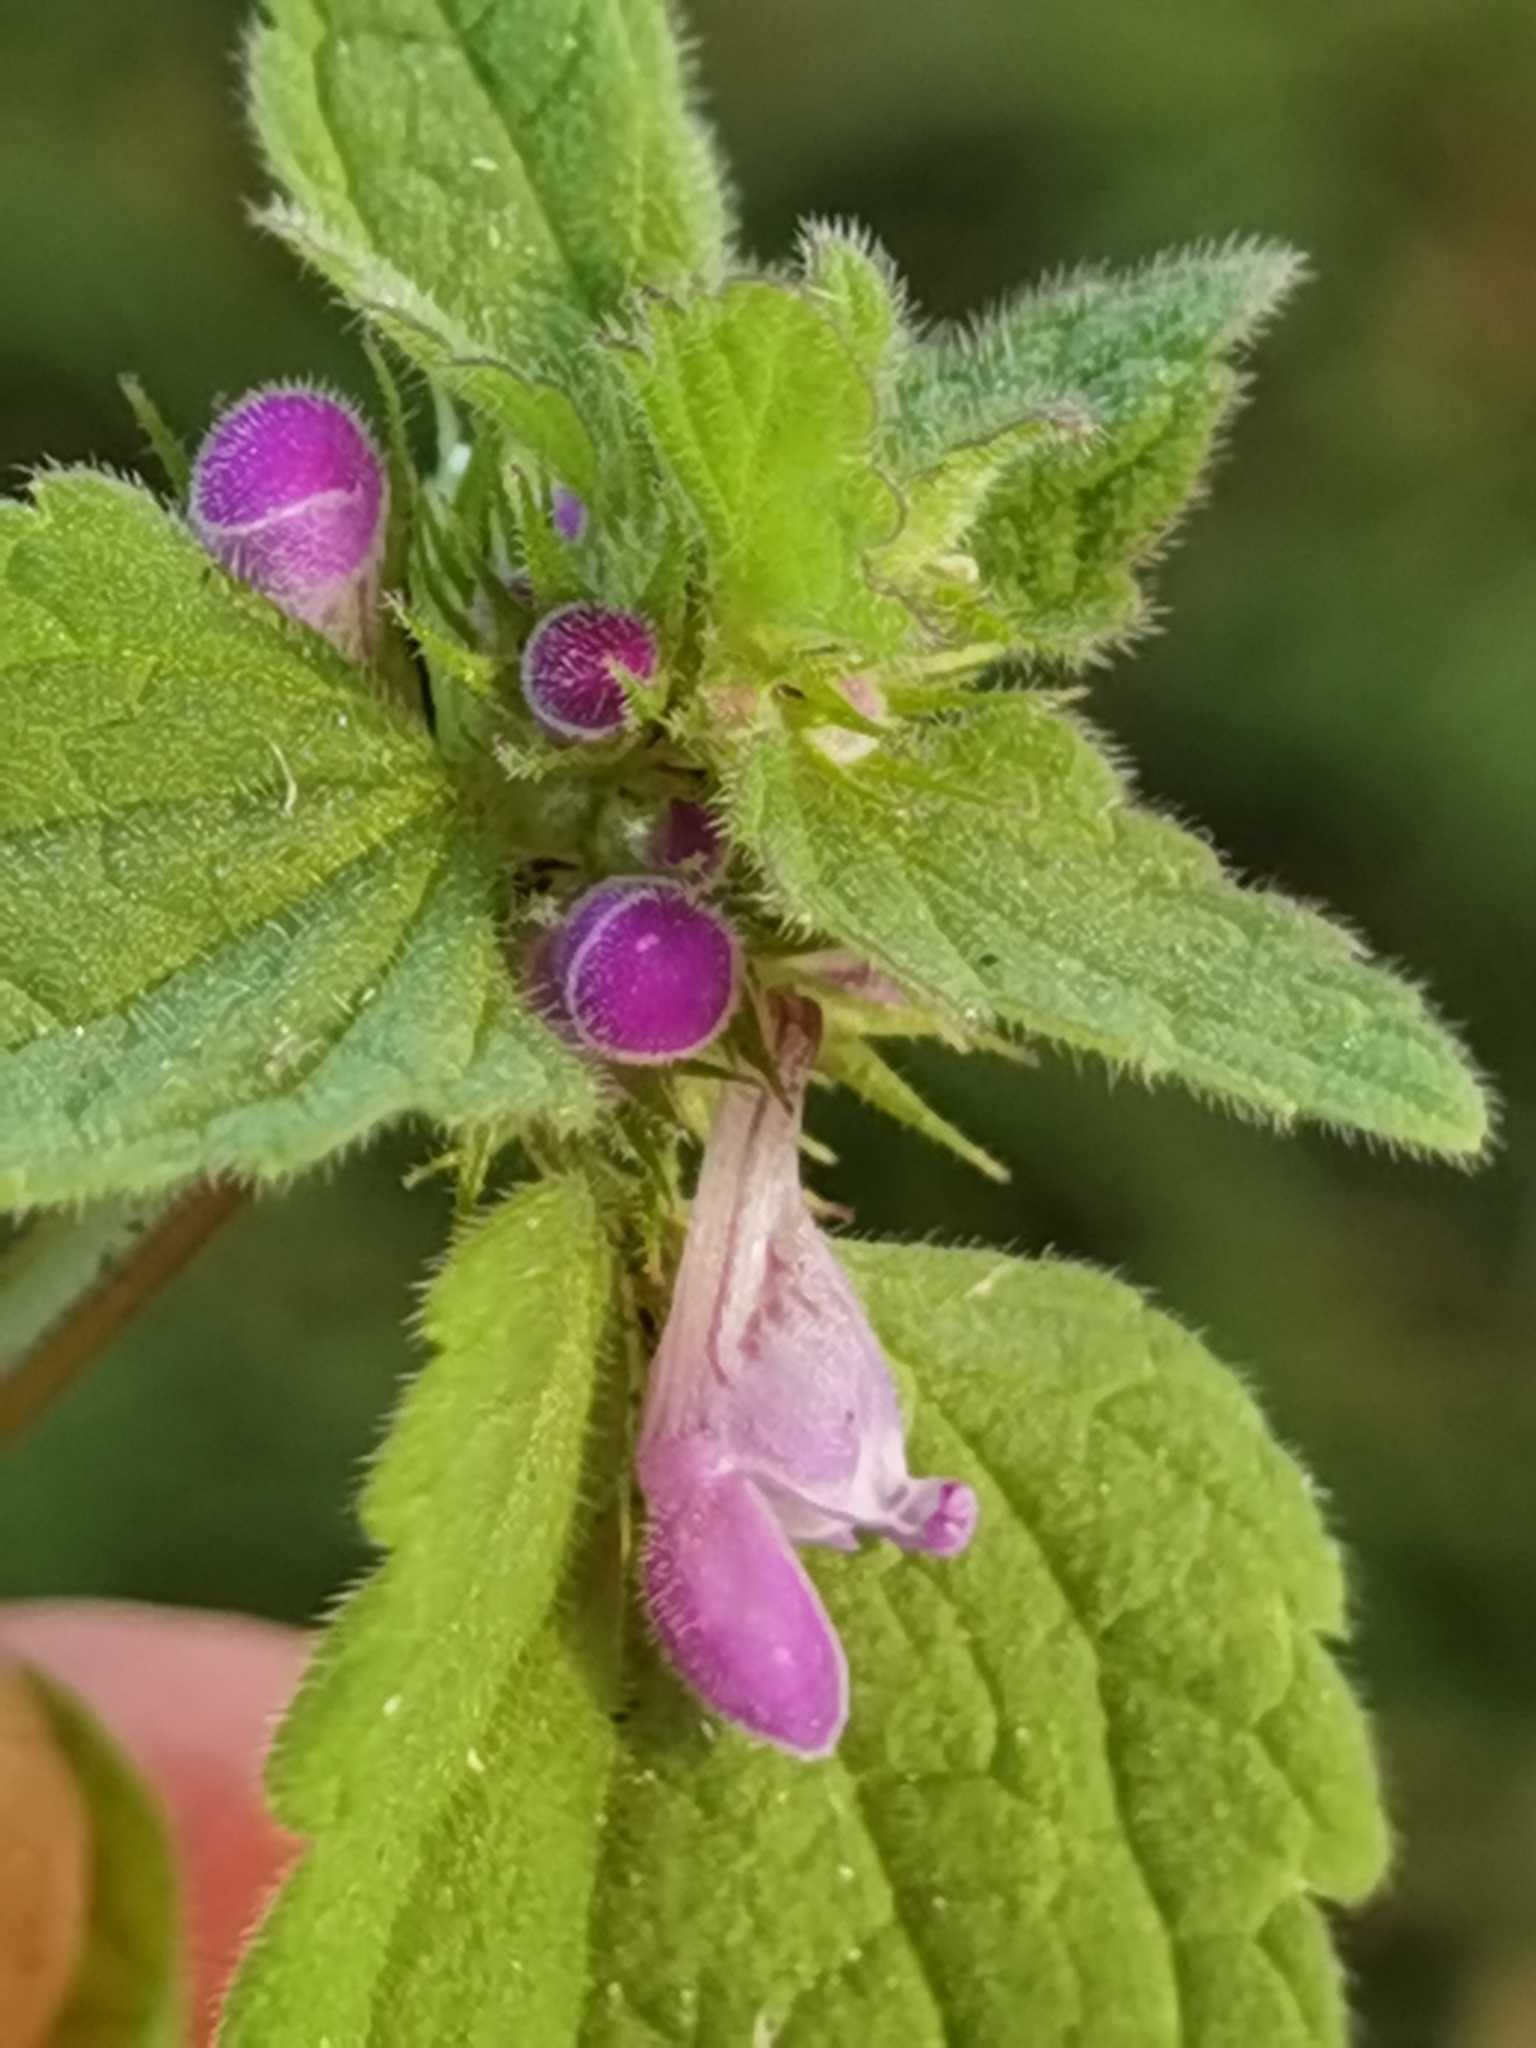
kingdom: Plantae
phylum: Tracheophyta
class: Magnoliopsida
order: Lamiales
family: Lamiaceae
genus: Lamium
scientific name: Lamium purpureum
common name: Red dead-nettle
